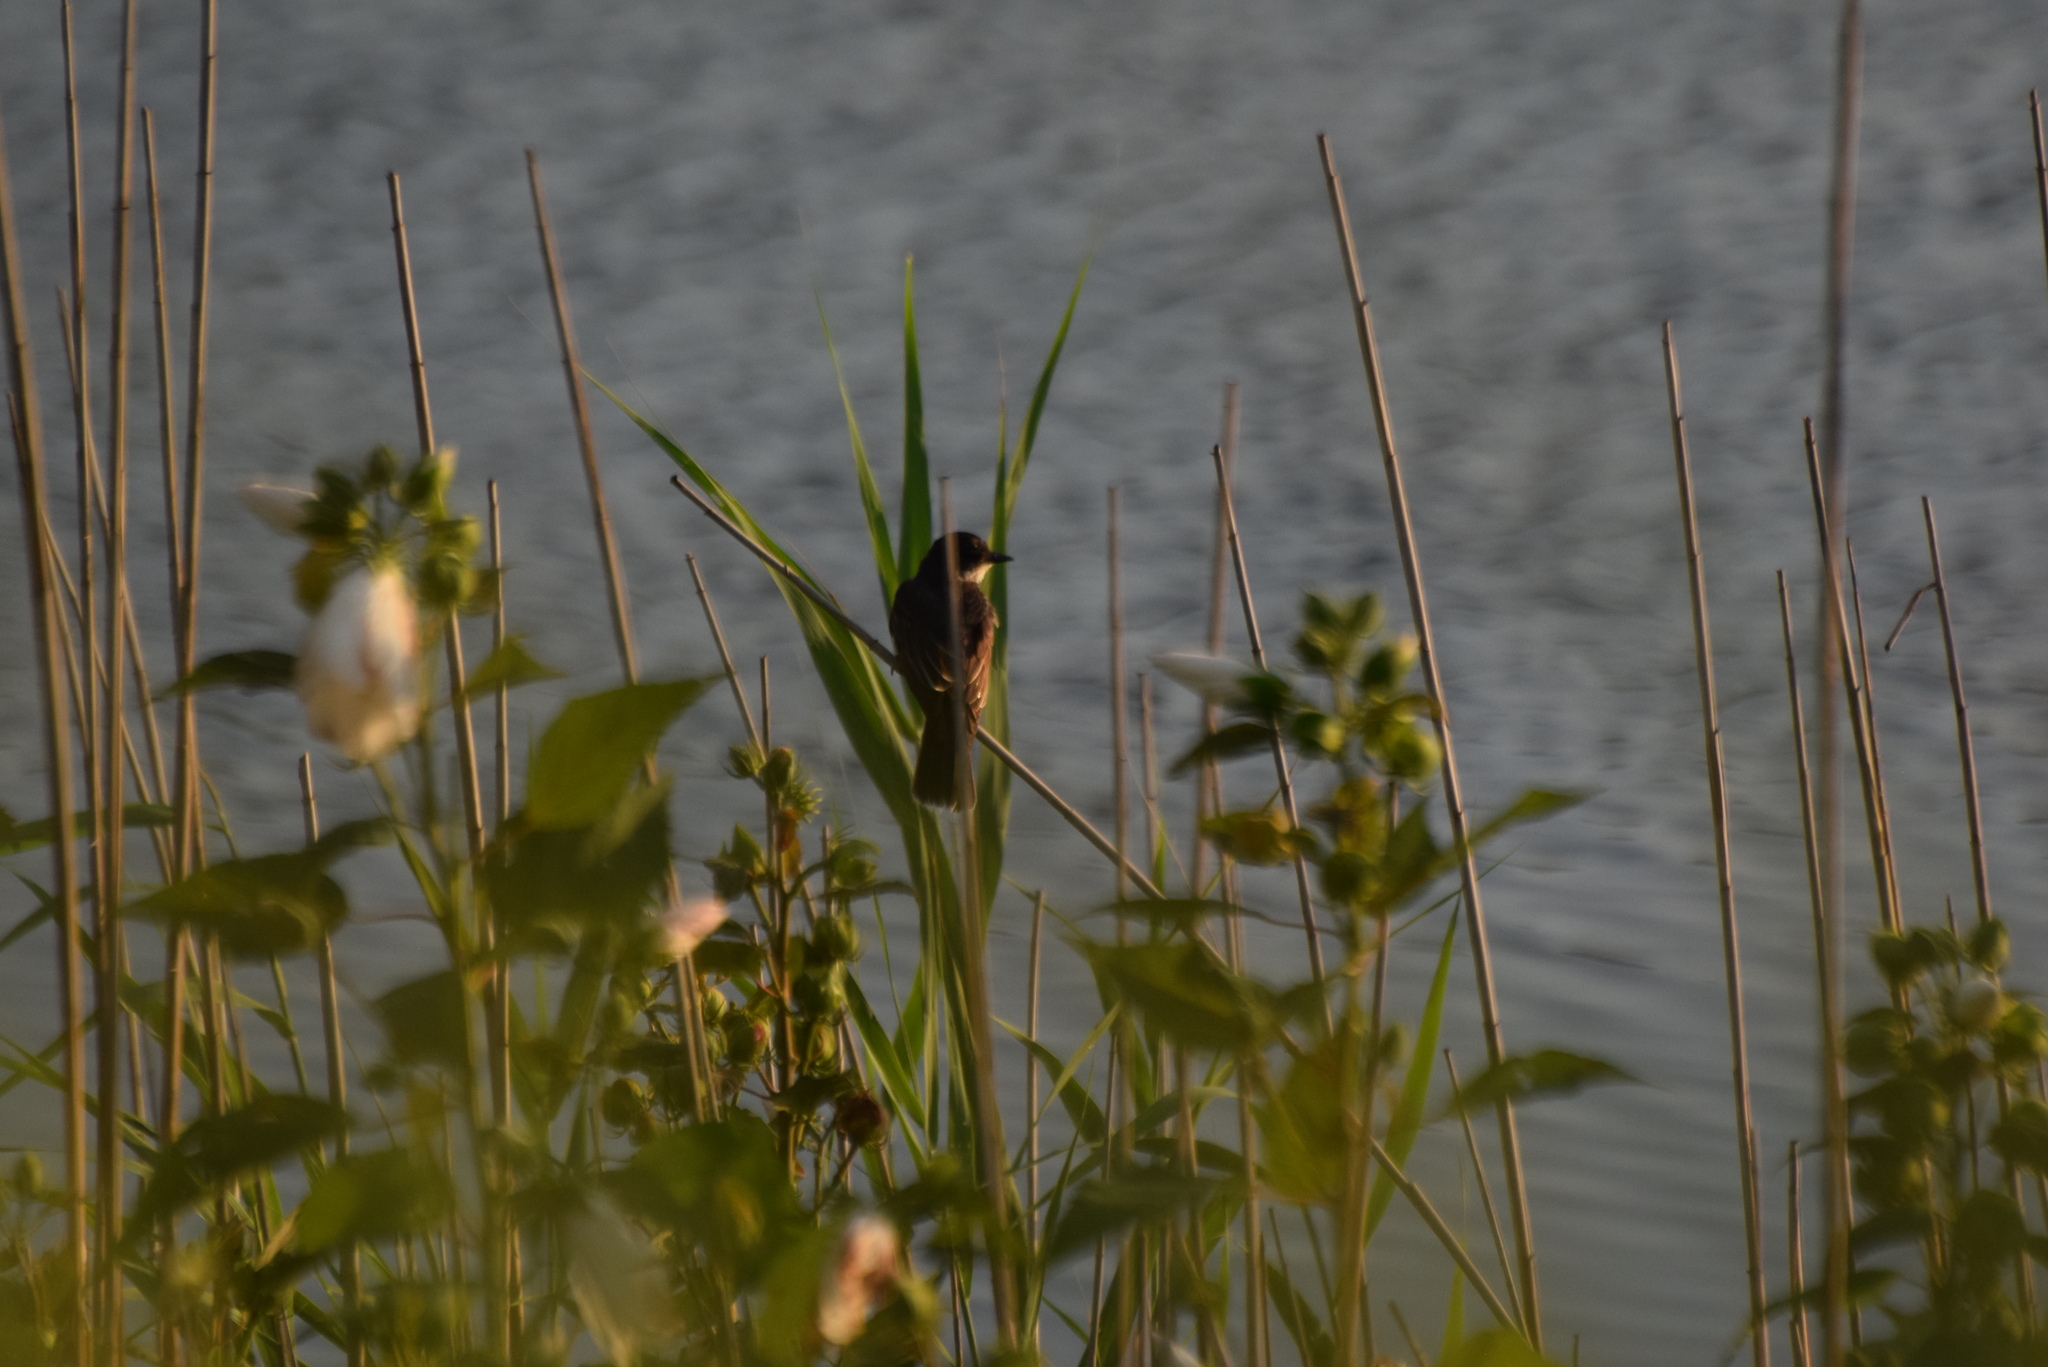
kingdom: Animalia
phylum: Chordata
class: Aves
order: Passeriformes
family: Tyrannidae
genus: Tyrannus
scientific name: Tyrannus tyrannus
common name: Eastern kingbird
